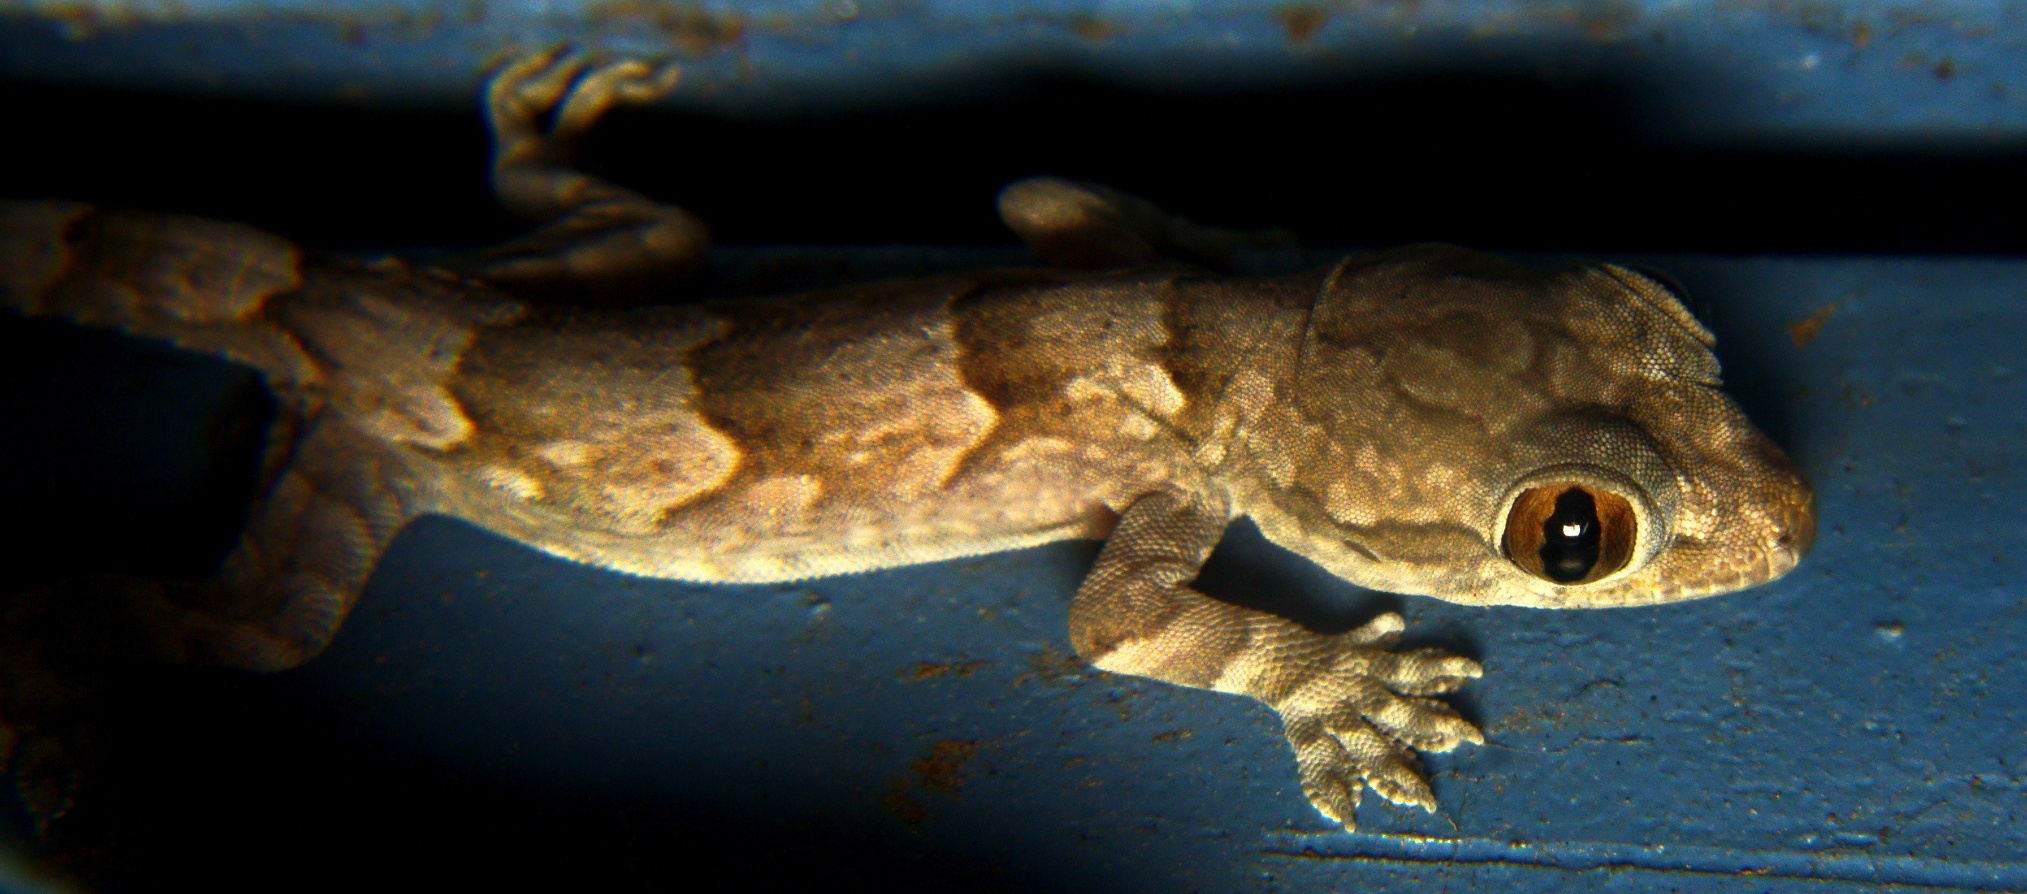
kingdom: Animalia
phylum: Chordata
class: Squamata
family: Gekkonidae
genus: Hemidactylus
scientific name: Hemidactylus leschenaultii
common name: Leschenault's leaf-toed gecko
